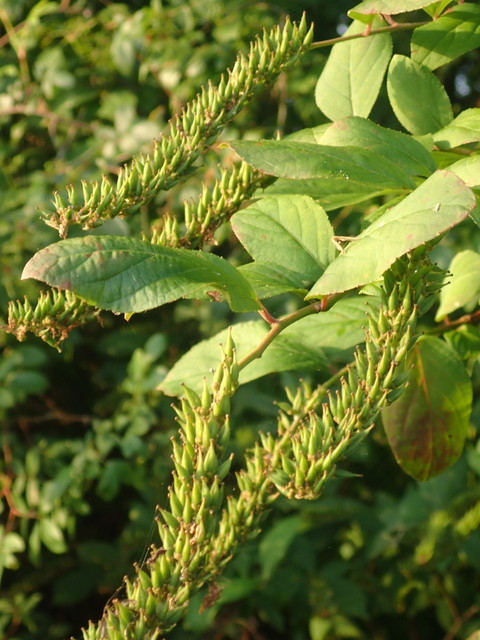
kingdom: Plantae
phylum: Tracheophyta
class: Magnoliopsida
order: Saxifragales
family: Iteaceae
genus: Itea
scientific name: Itea virginica
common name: Sweetspire
